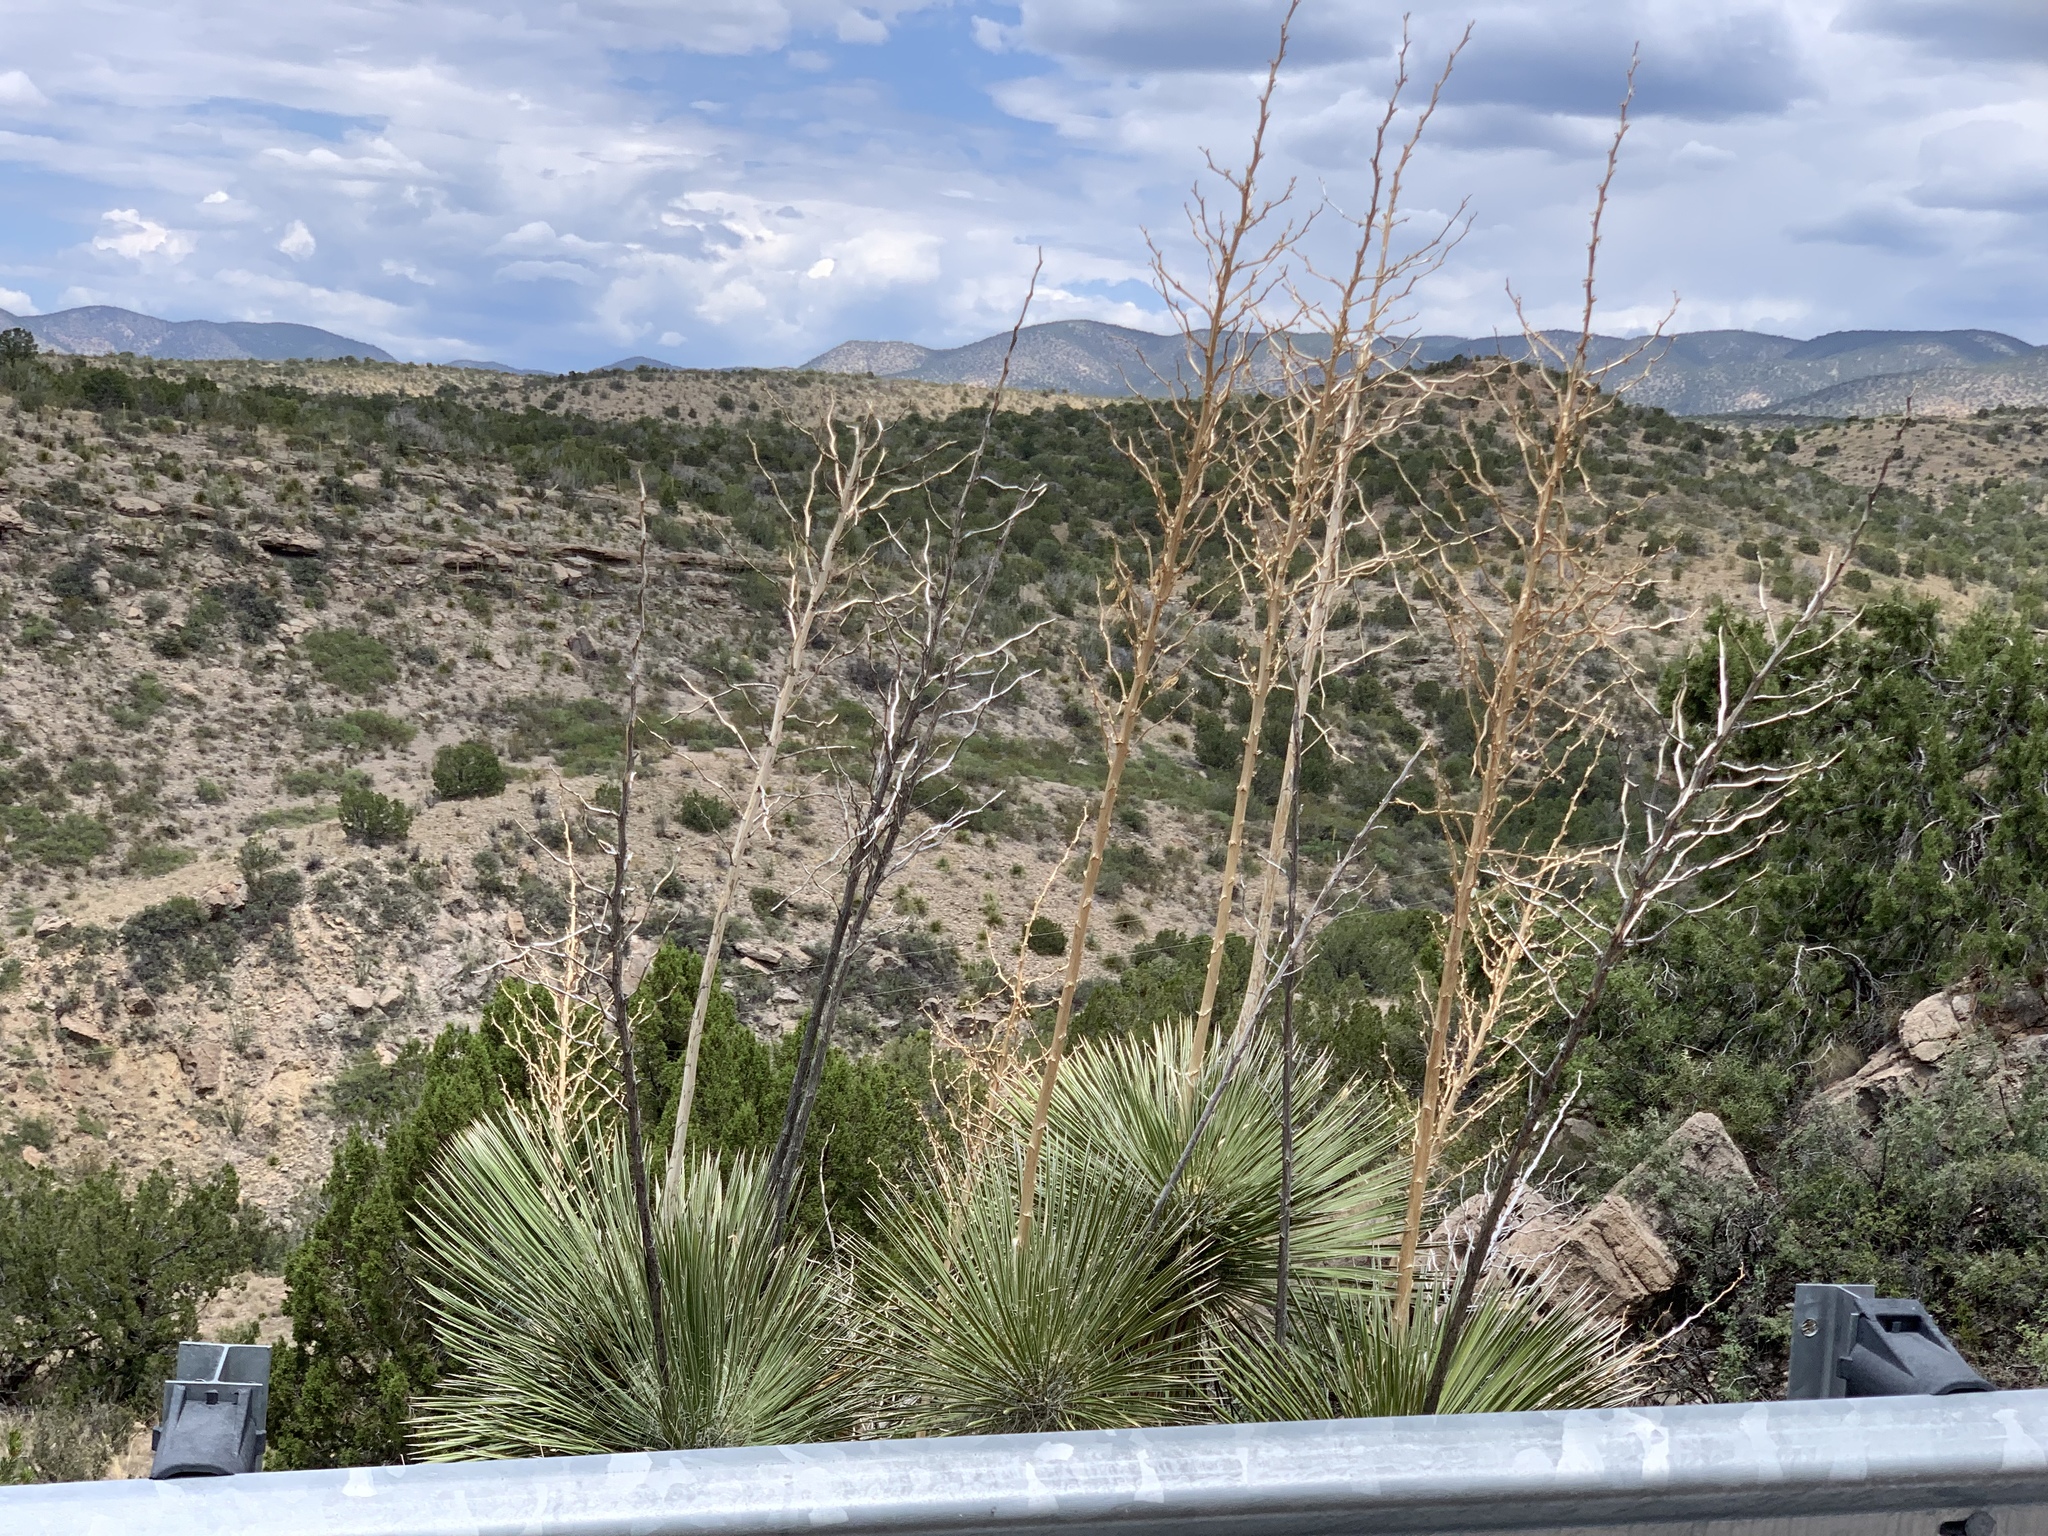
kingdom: Plantae
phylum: Tracheophyta
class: Liliopsida
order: Asparagales
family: Asparagaceae
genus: Yucca
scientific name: Yucca elata
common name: Palmella
